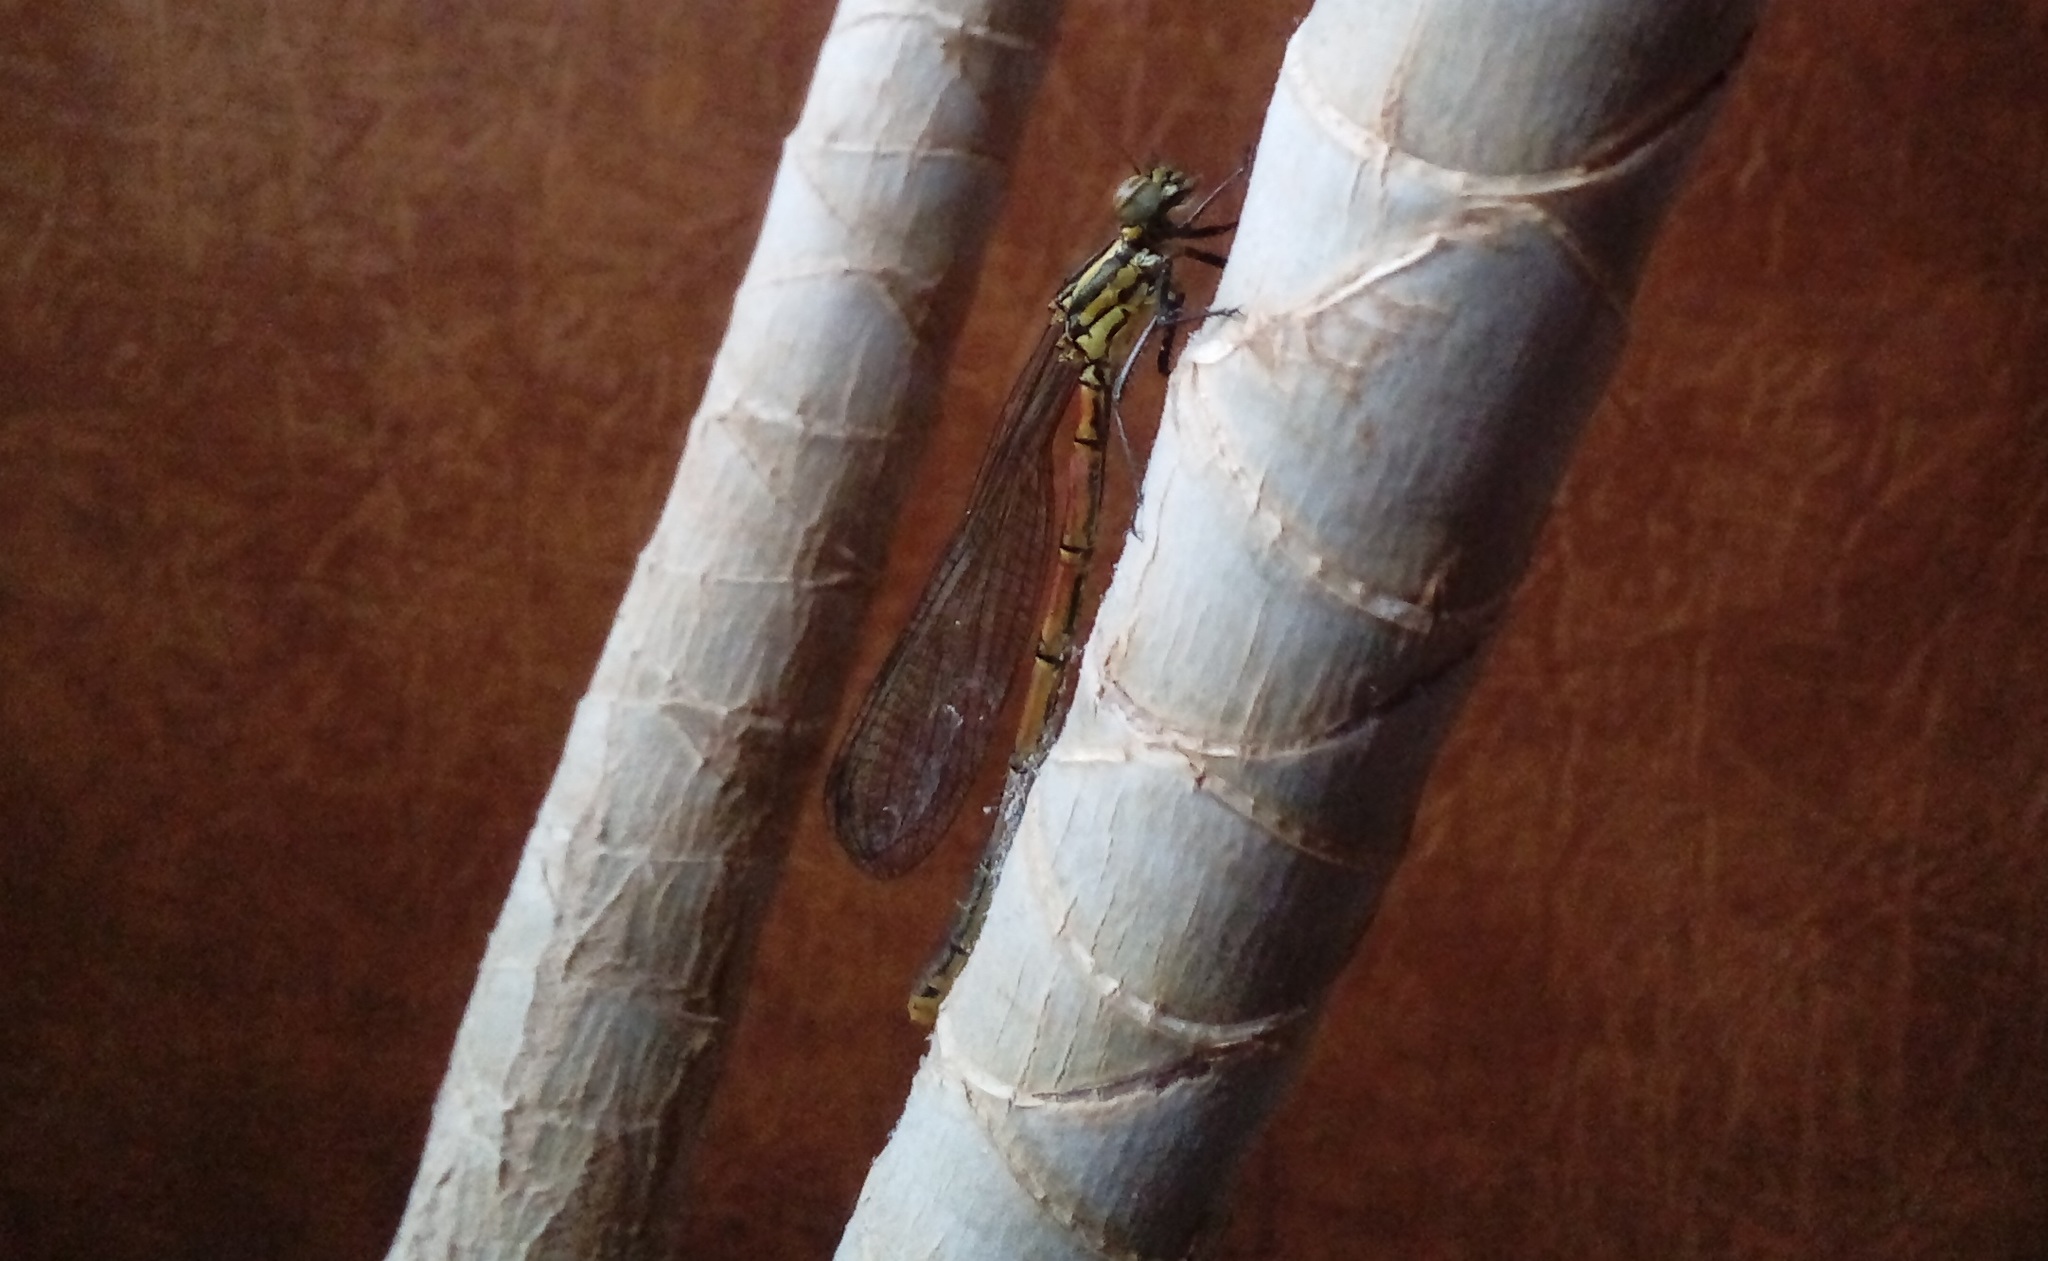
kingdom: Animalia
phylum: Arthropoda
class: Insecta
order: Odonata
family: Coenagrionidae
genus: Pyrrhosoma
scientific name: Pyrrhosoma nymphula
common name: Large red damsel
